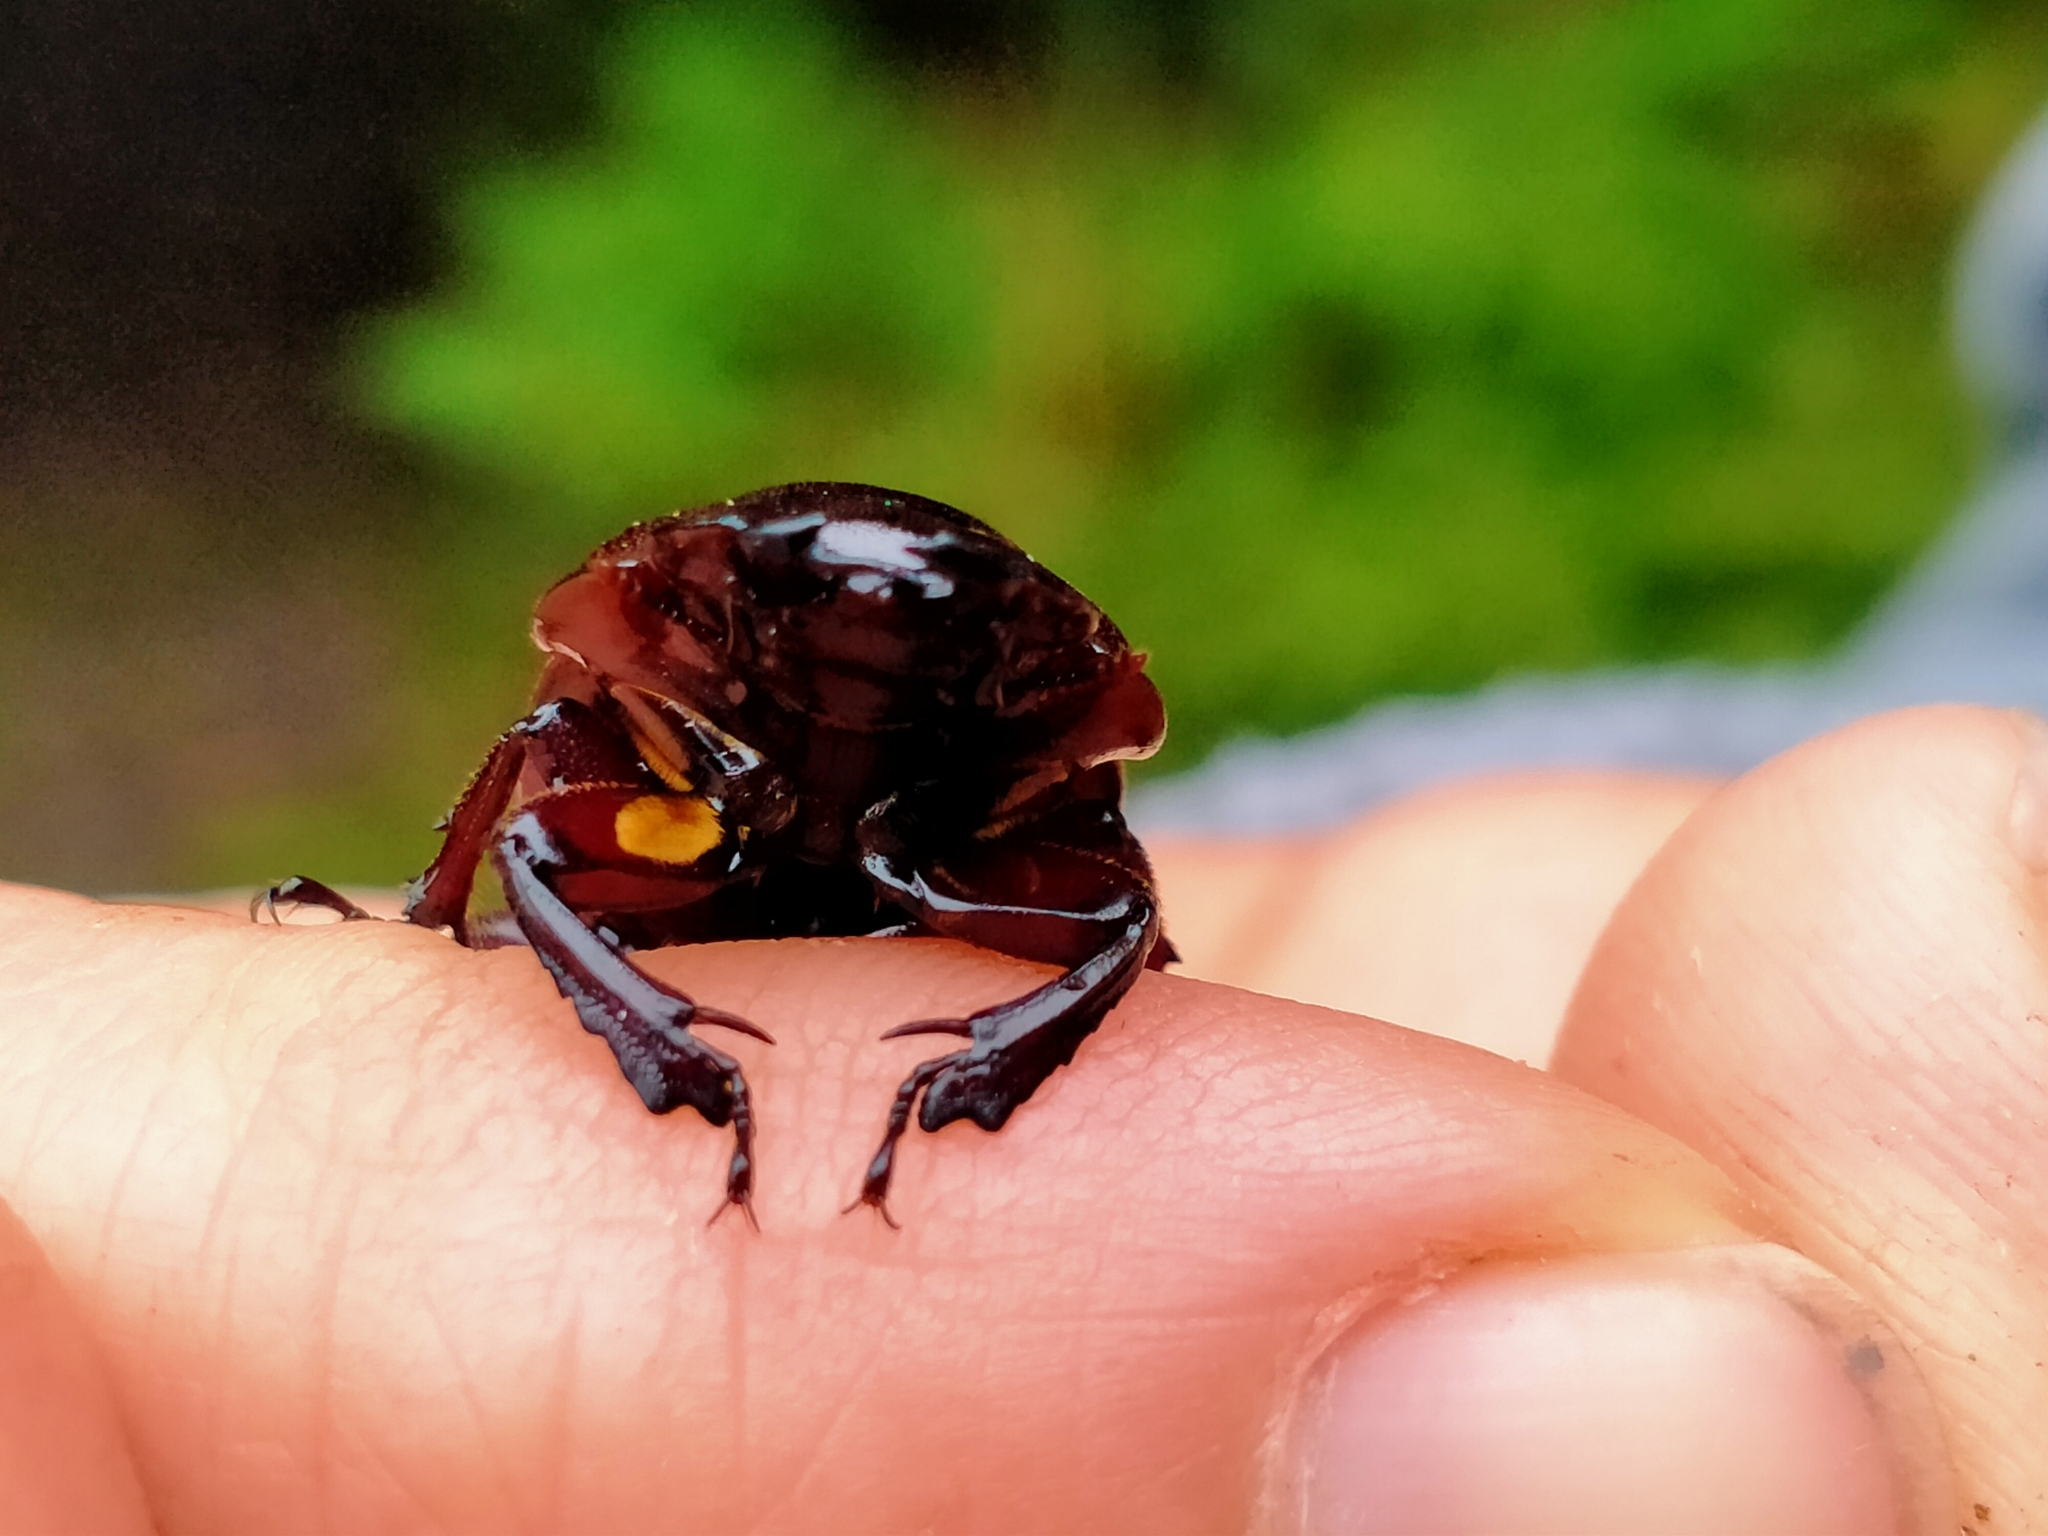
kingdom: Animalia
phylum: Arthropoda
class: Insecta
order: Coleoptera
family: Lucanidae
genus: Geodorcus
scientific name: Geodorcus helmsi
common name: Helm's stag beetle
